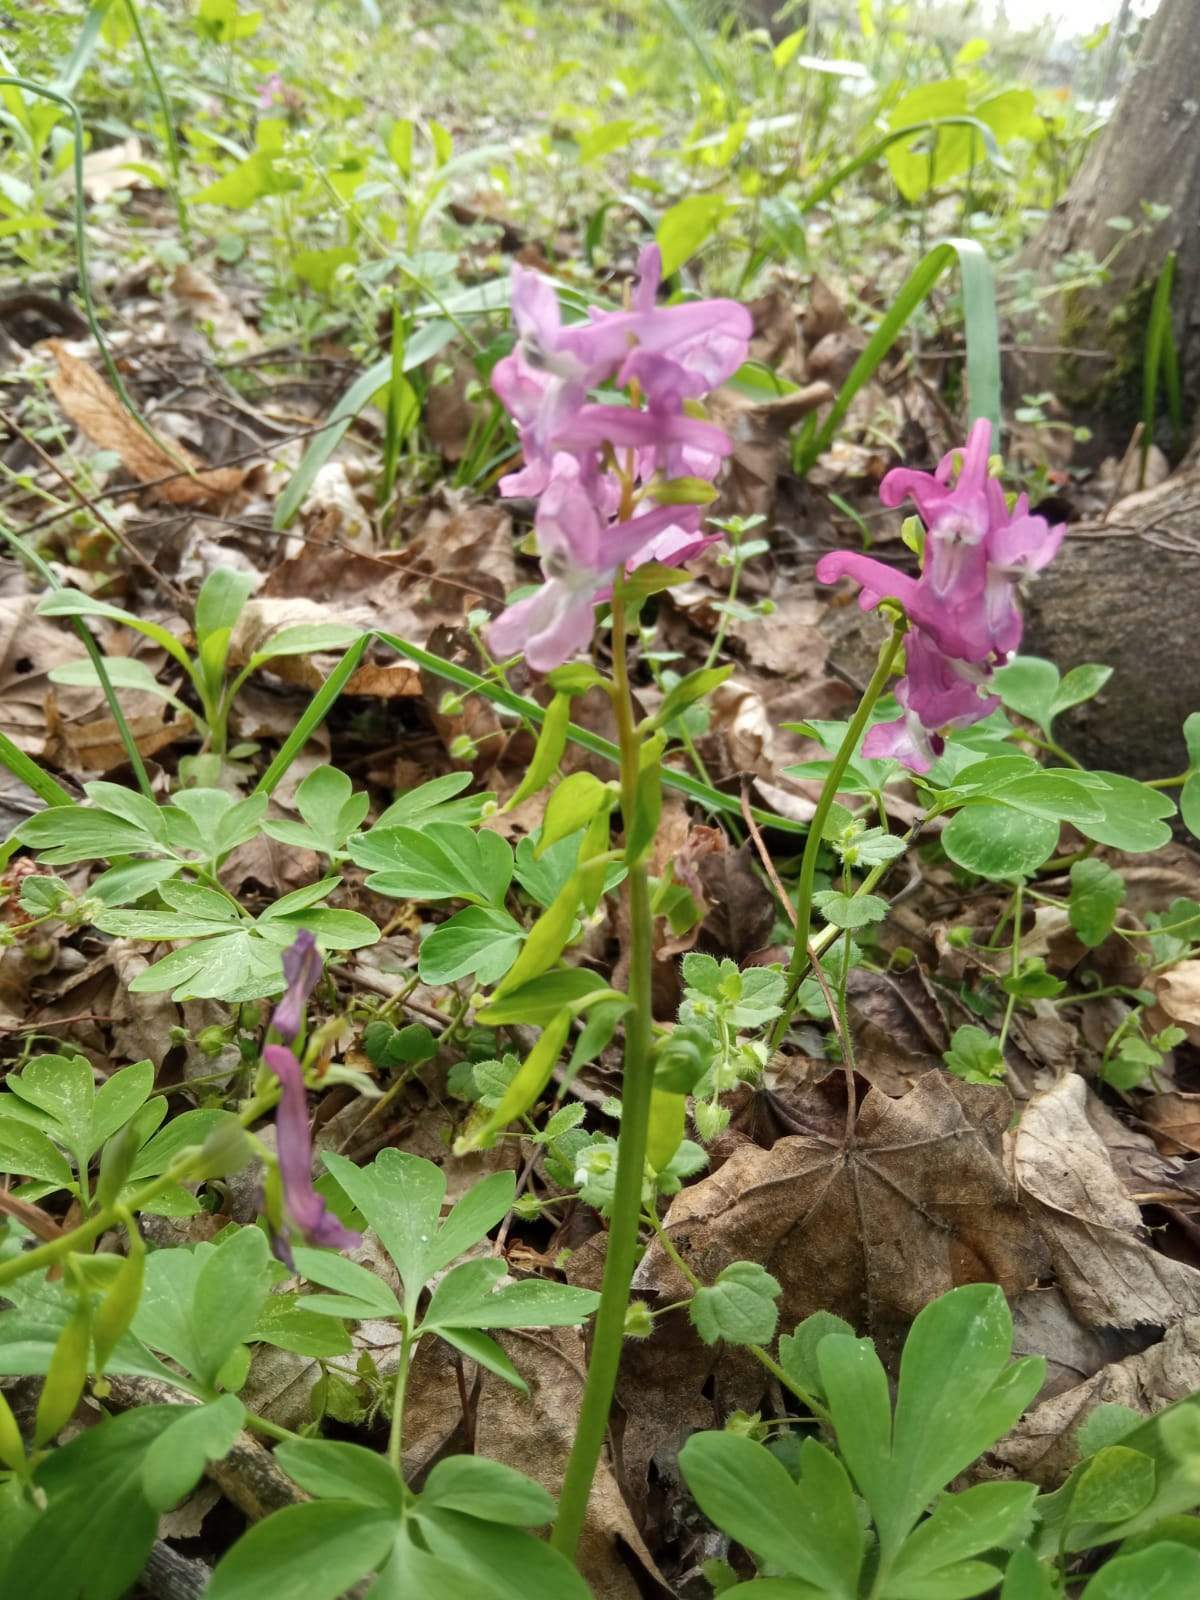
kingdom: Plantae
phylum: Tracheophyta
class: Magnoliopsida
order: Ranunculales
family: Papaveraceae
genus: Corydalis
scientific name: Corydalis cava
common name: Hollowroot
